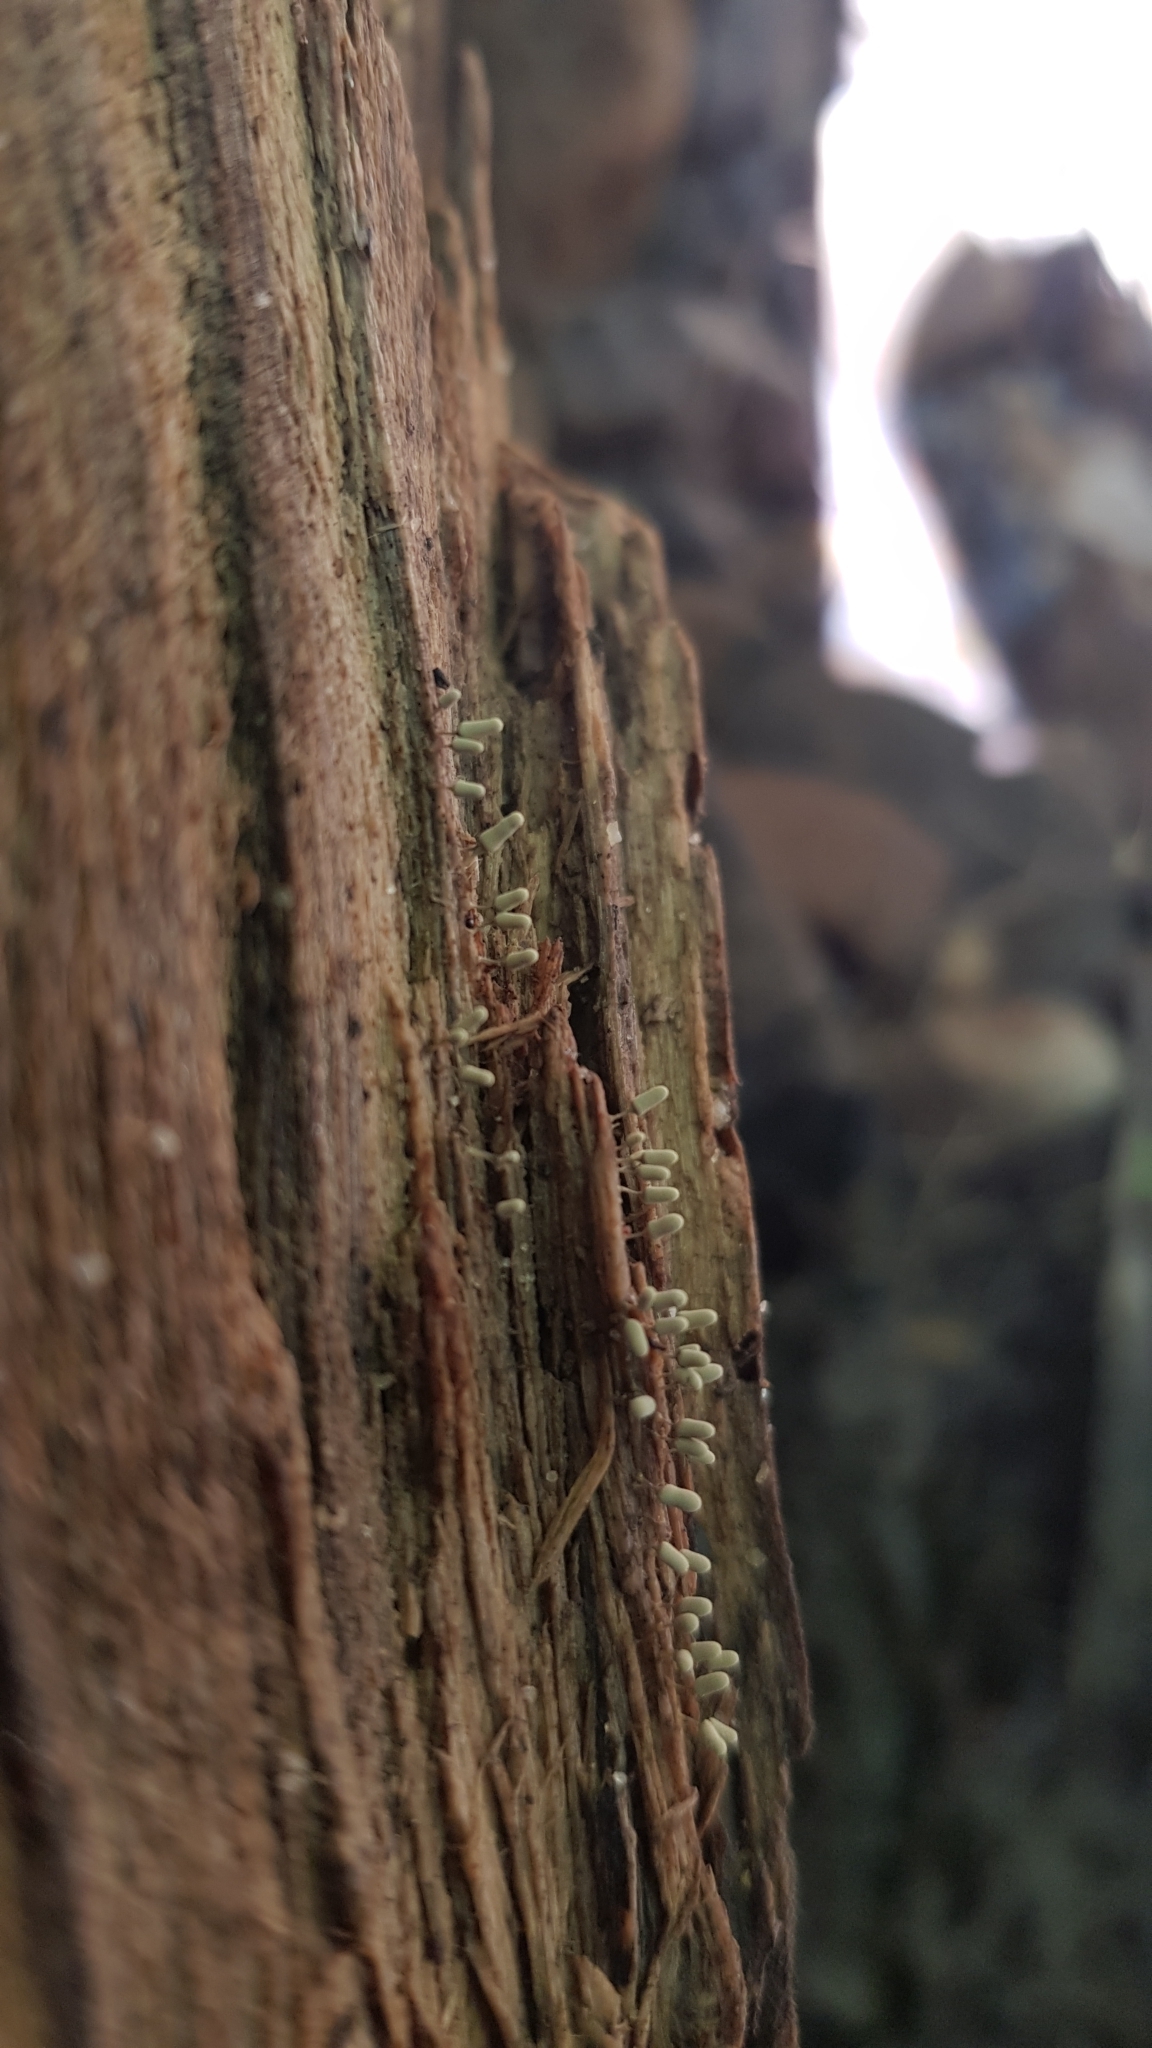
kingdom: Protozoa
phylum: Mycetozoa
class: Myxomycetes
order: Trichiales
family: Arcyriaceae
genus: Arcyria
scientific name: Arcyria cinerea
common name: White carnival candy slime mold
